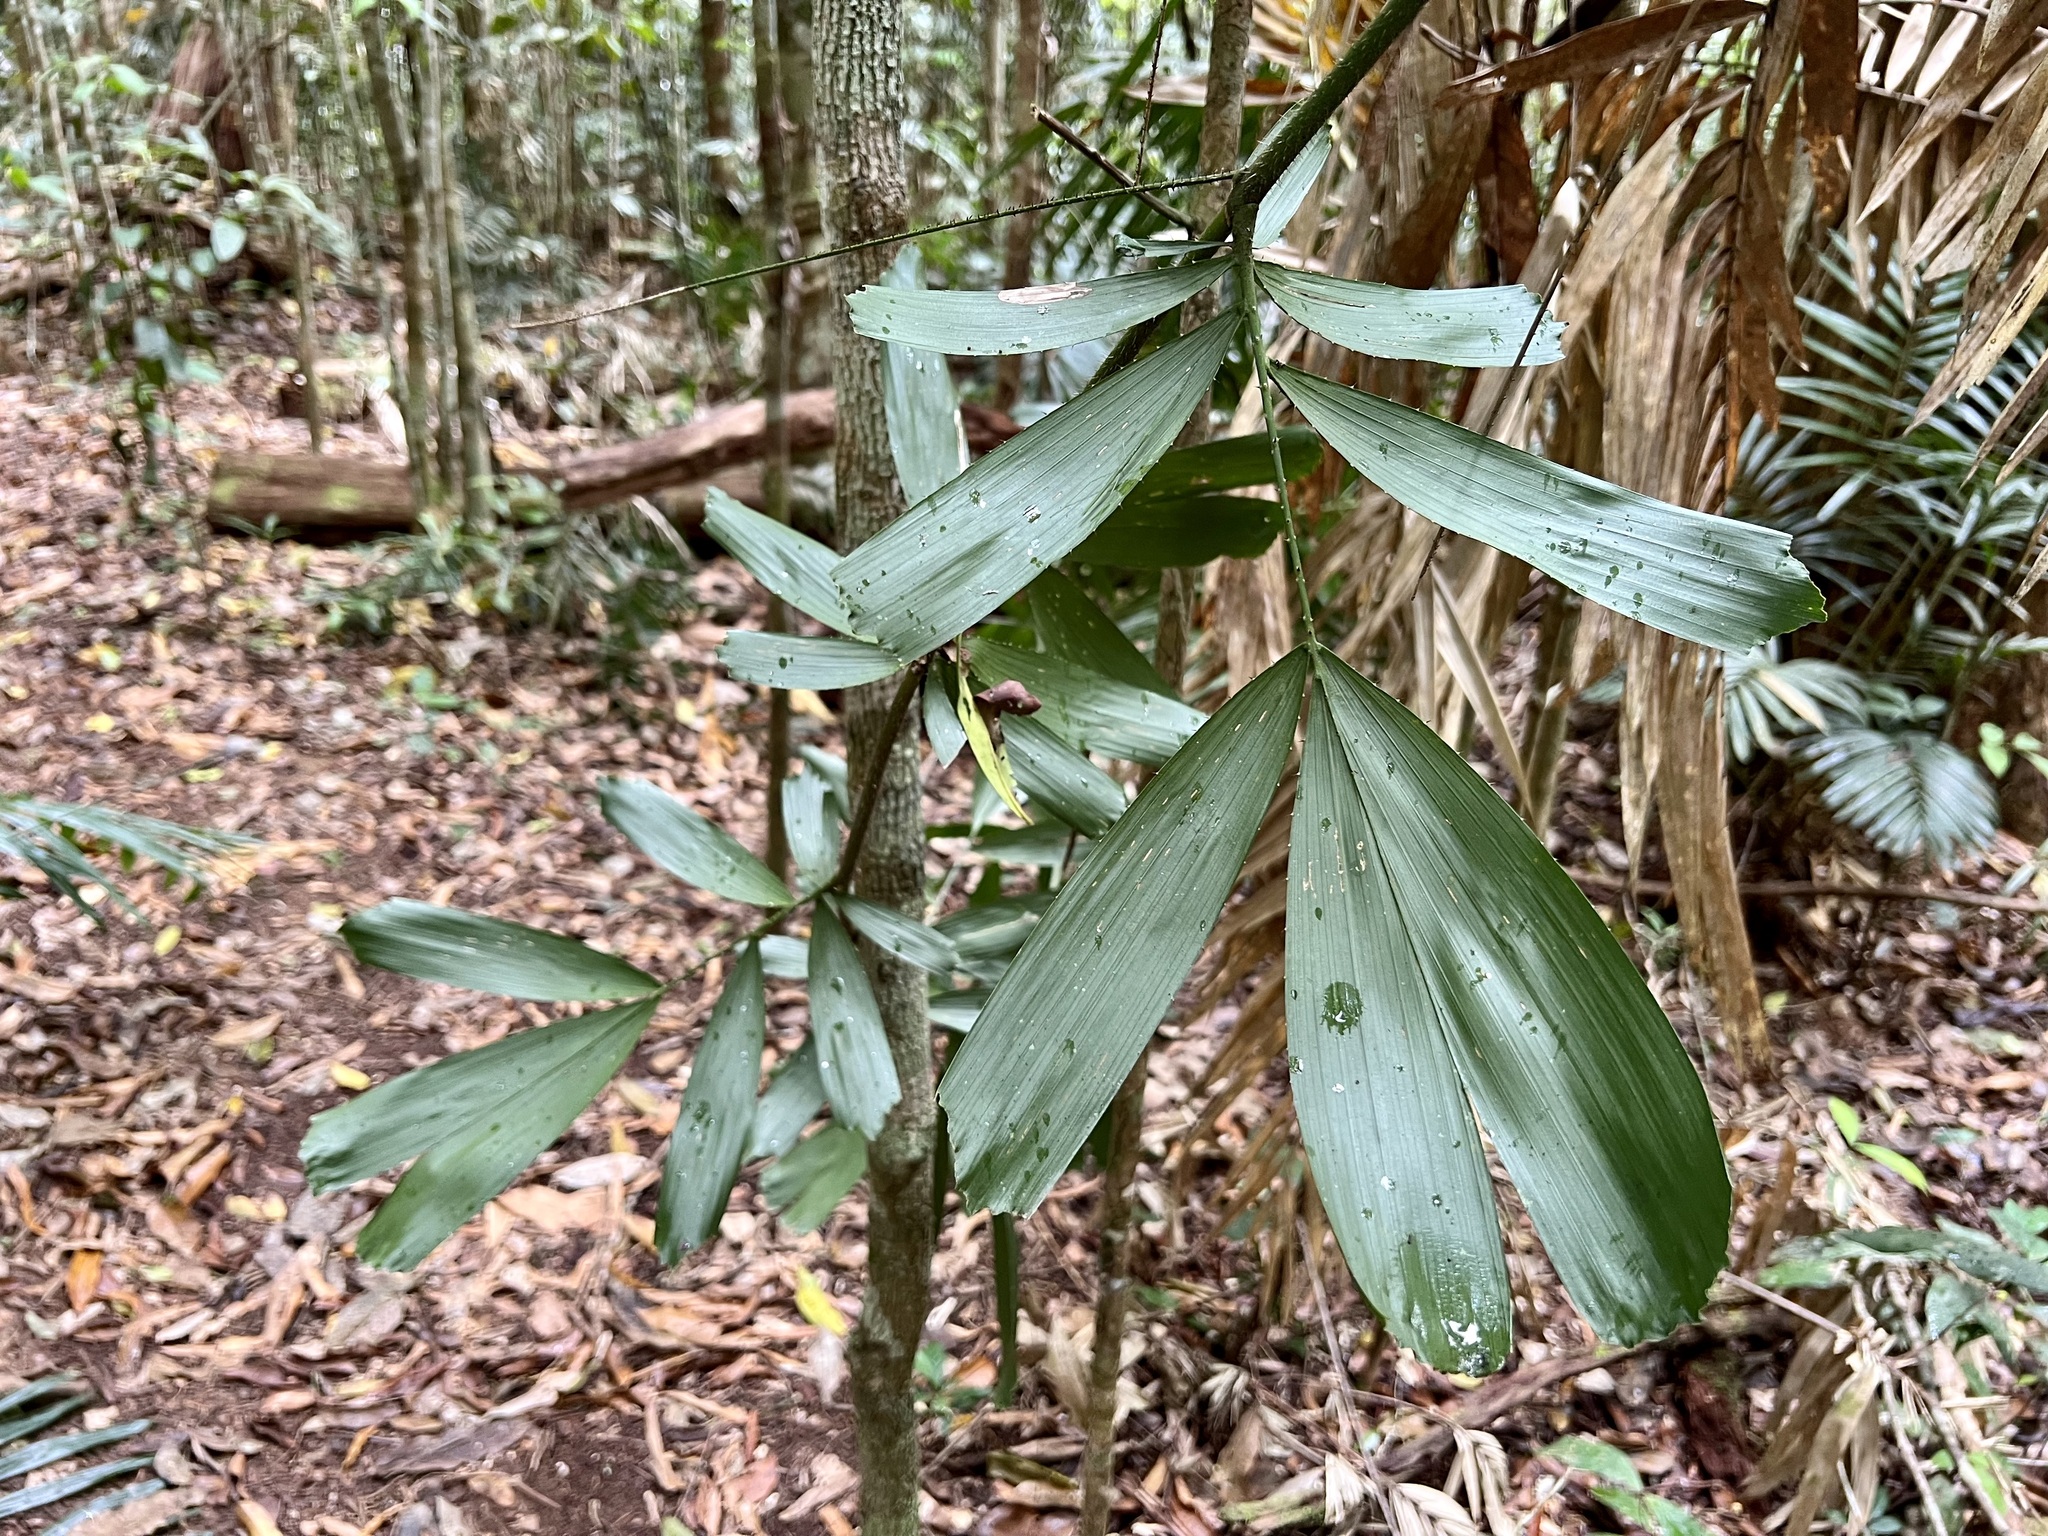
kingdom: Plantae
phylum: Tracheophyta
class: Liliopsida
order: Arecales
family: Arecaceae
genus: Calamus
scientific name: Calamus caryotoides
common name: Fishtail lawyer cane
